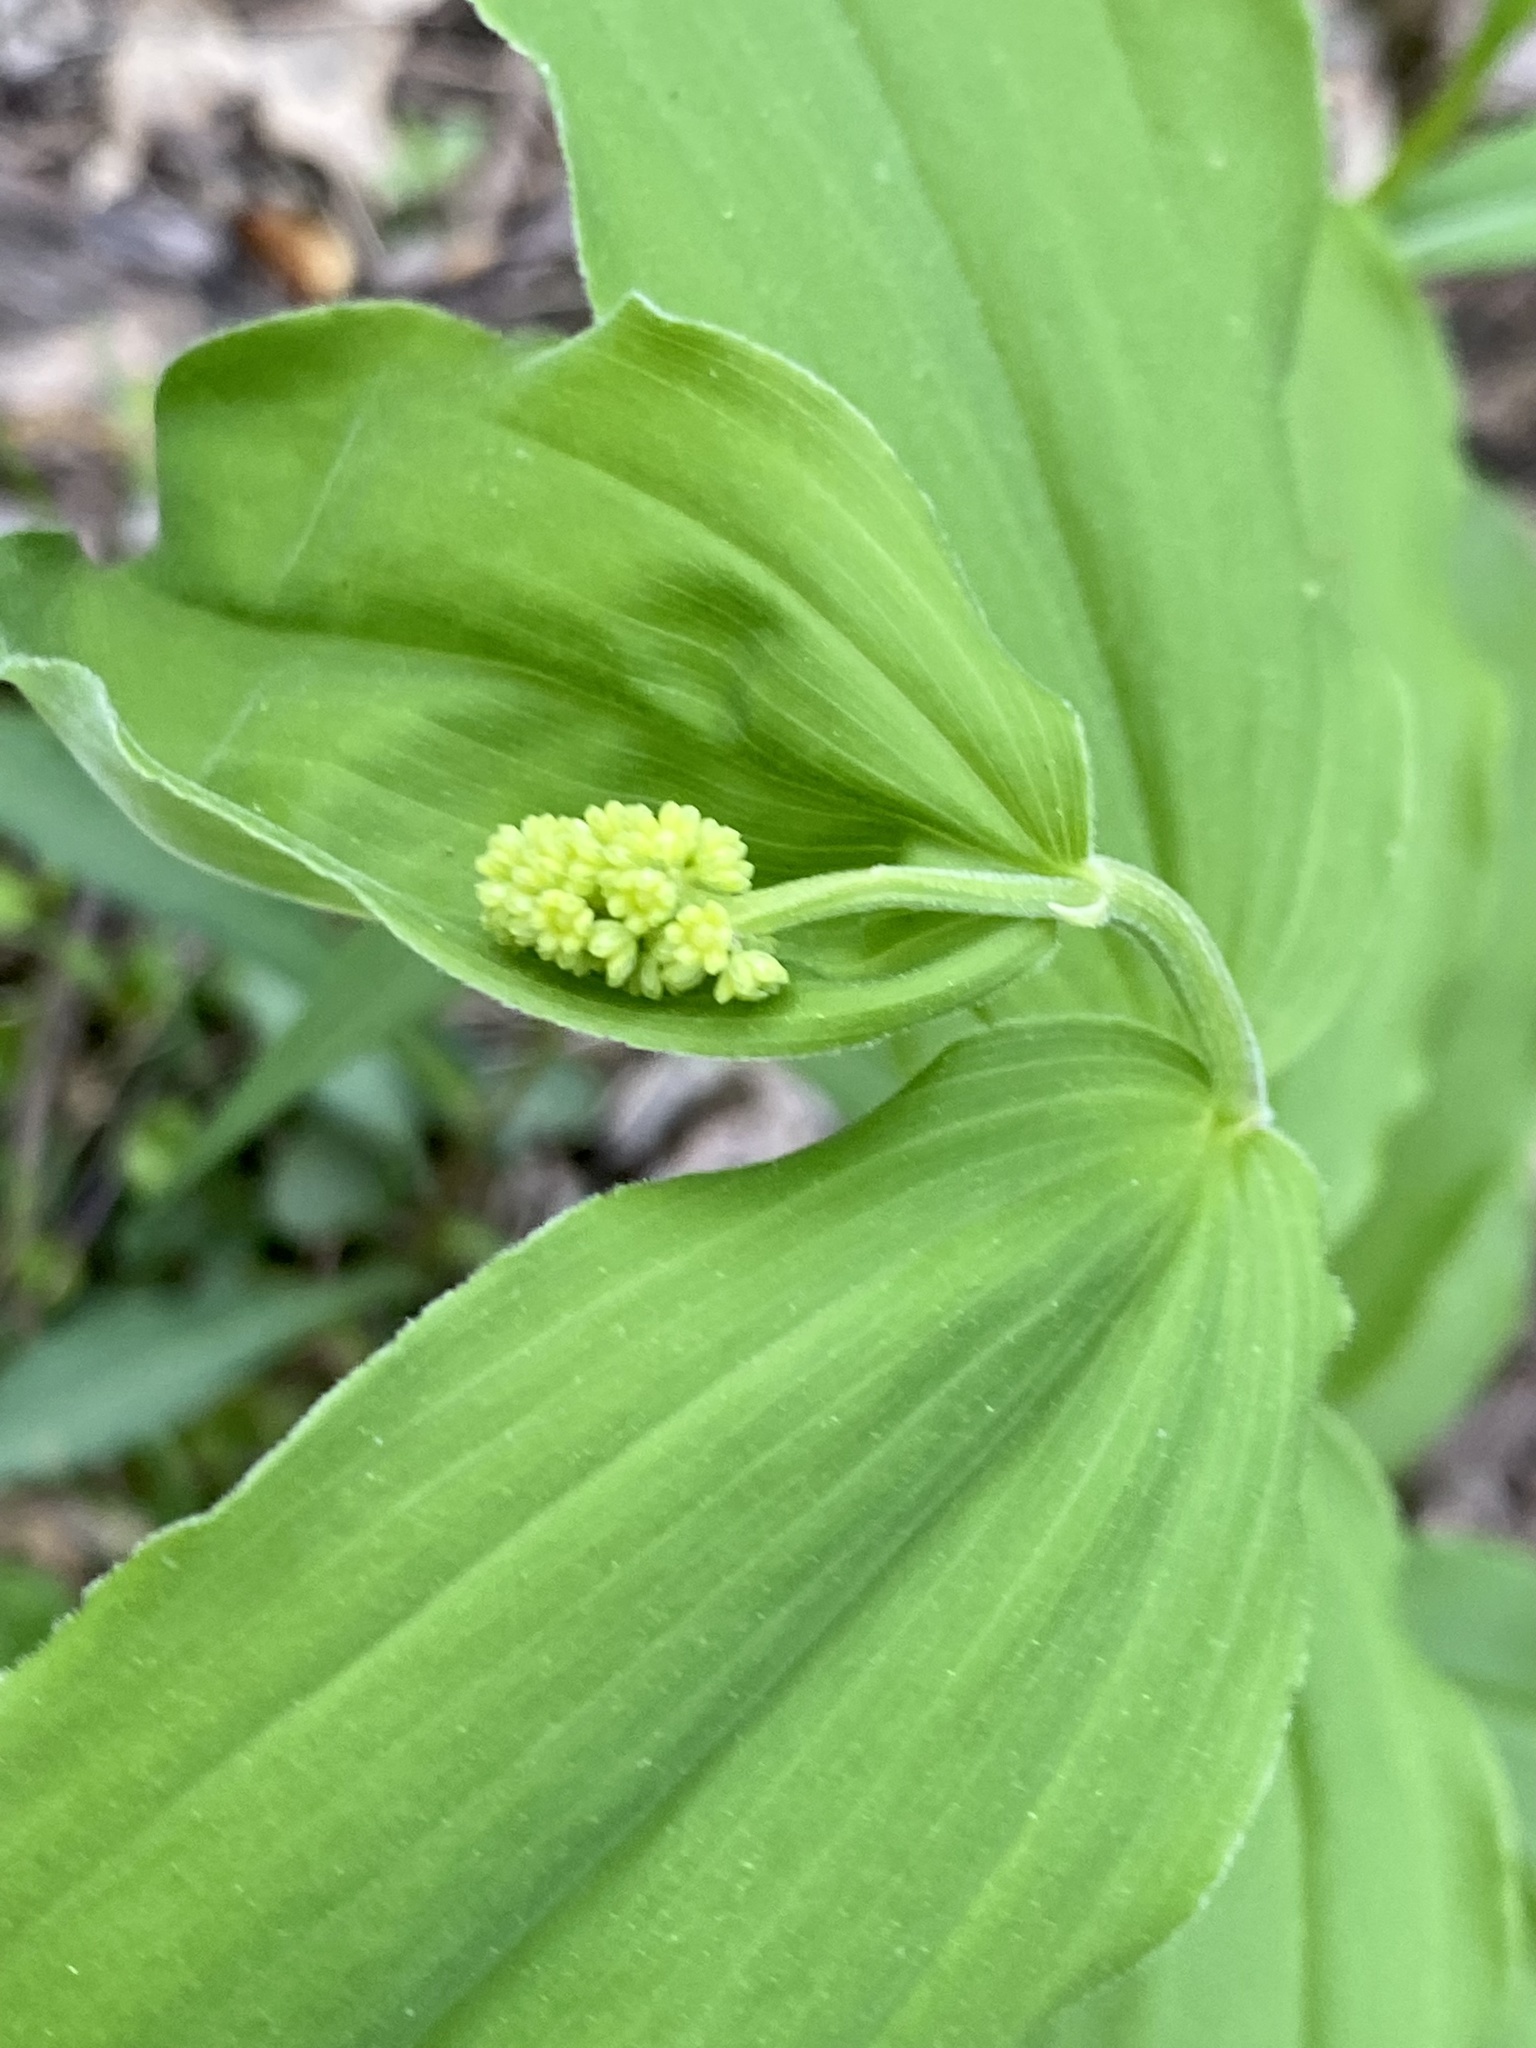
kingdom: Plantae
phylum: Tracheophyta
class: Liliopsida
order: Asparagales
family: Asparagaceae
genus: Maianthemum
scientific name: Maianthemum racemosum
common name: False spikenard
